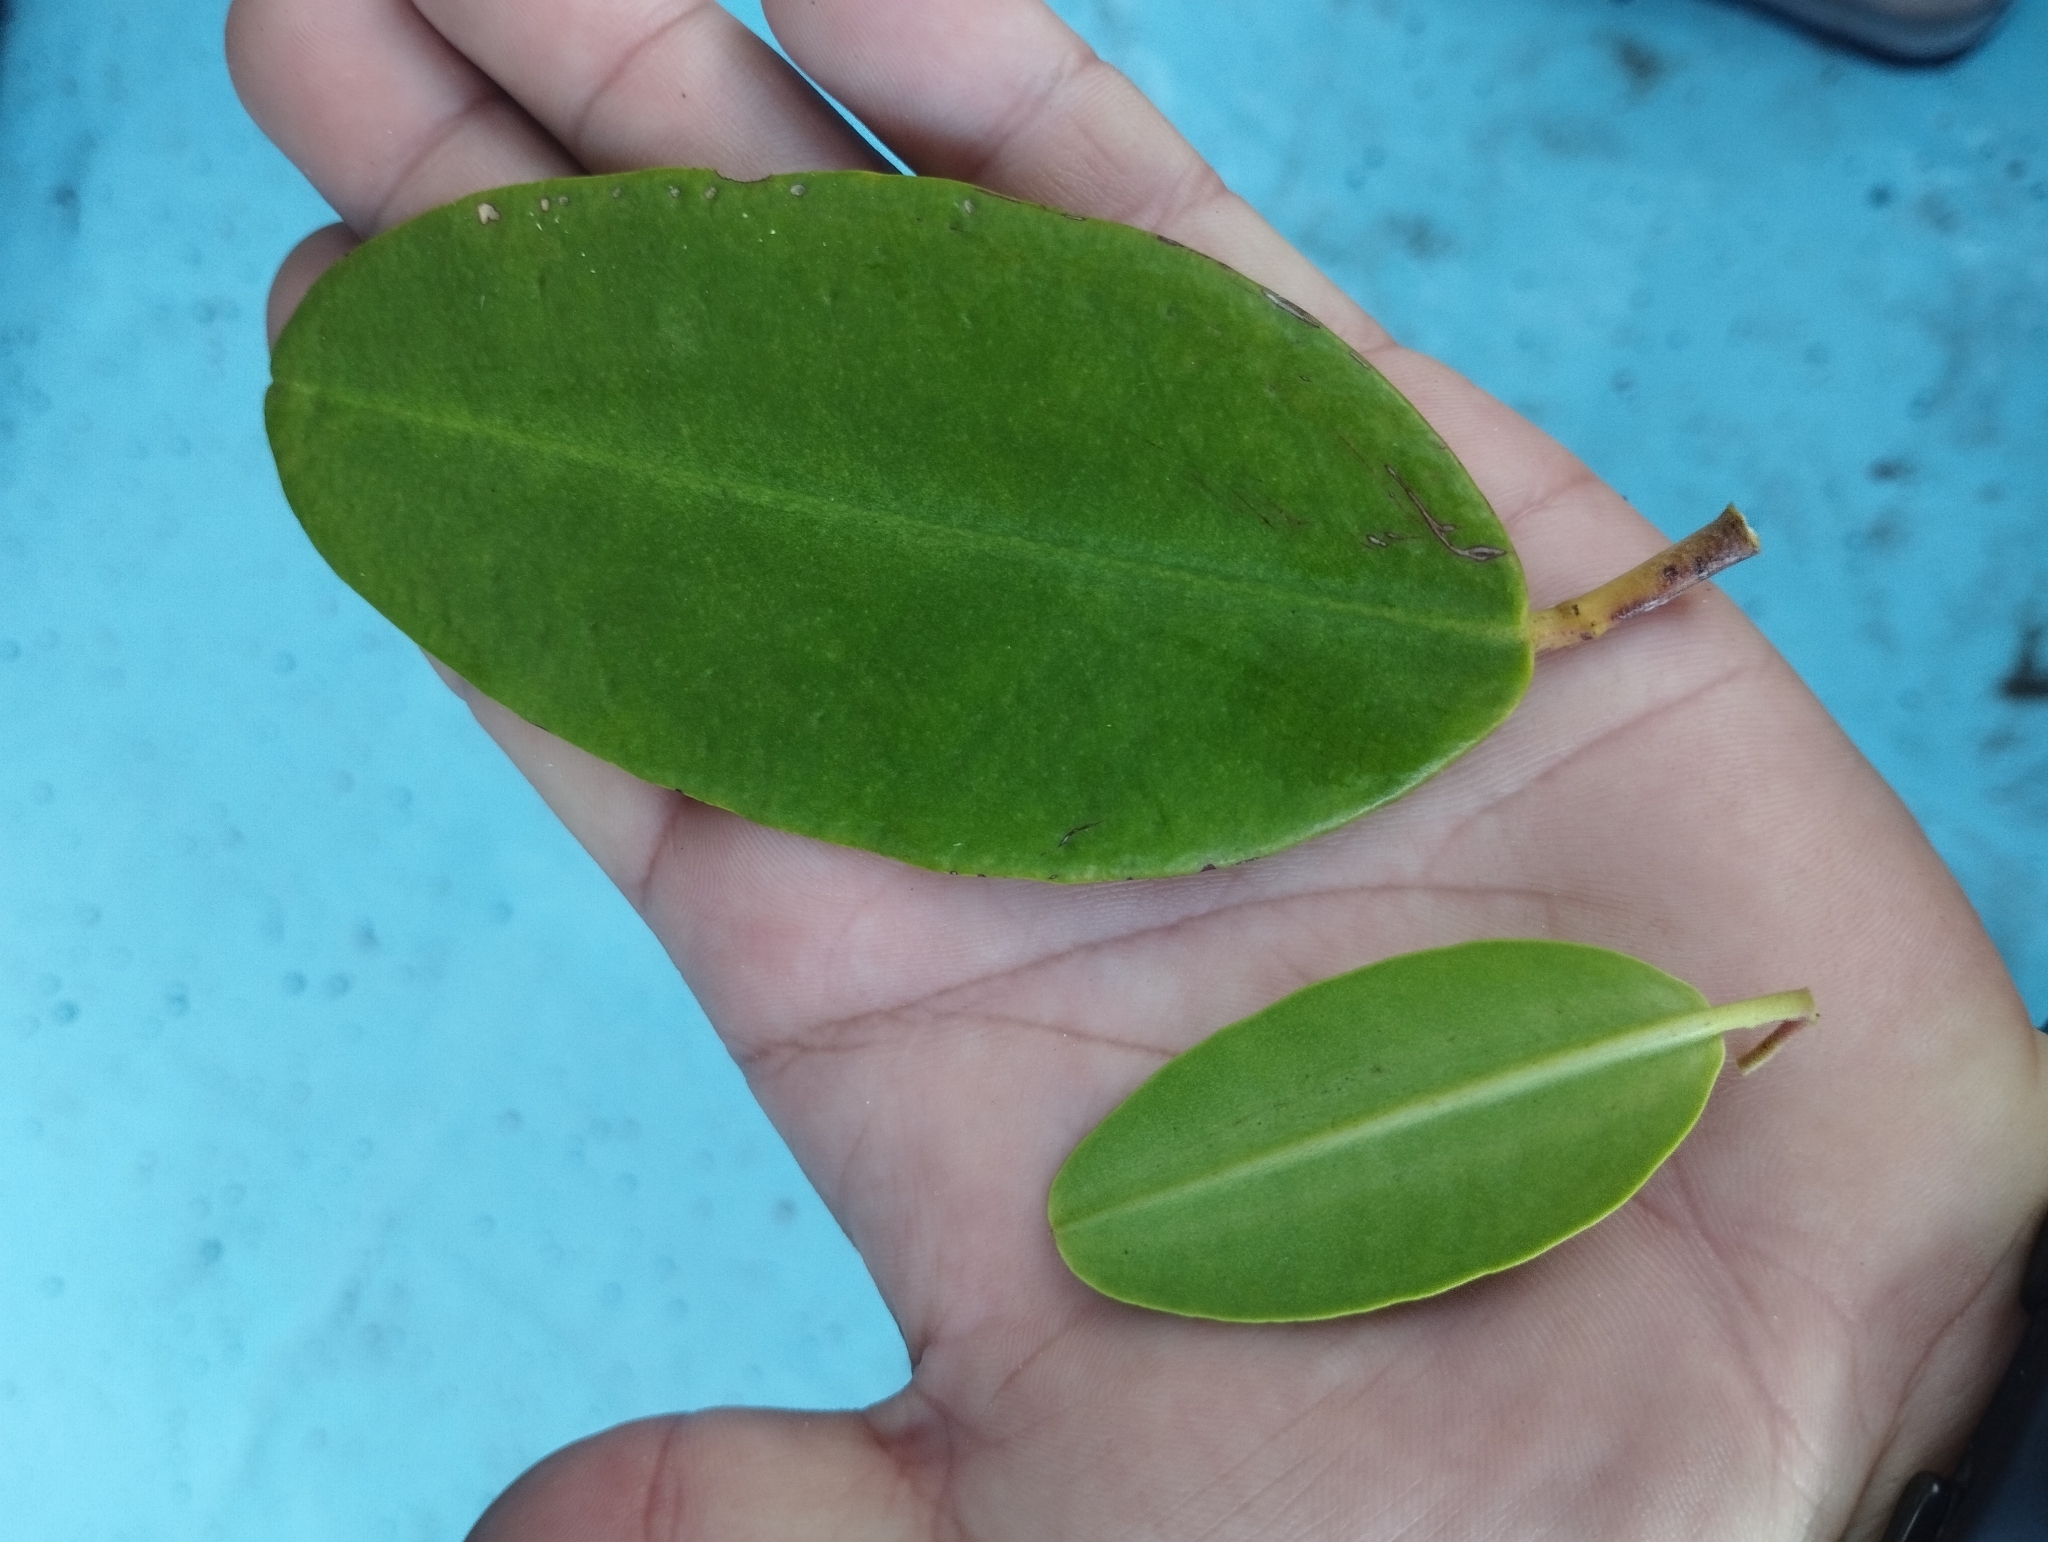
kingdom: Plantae
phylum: Tracheophyta
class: Magnoliopsida
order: Myrtales
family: Combretaceae
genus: Laguncularia
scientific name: Laguncularia racemosa
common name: White mangrove
